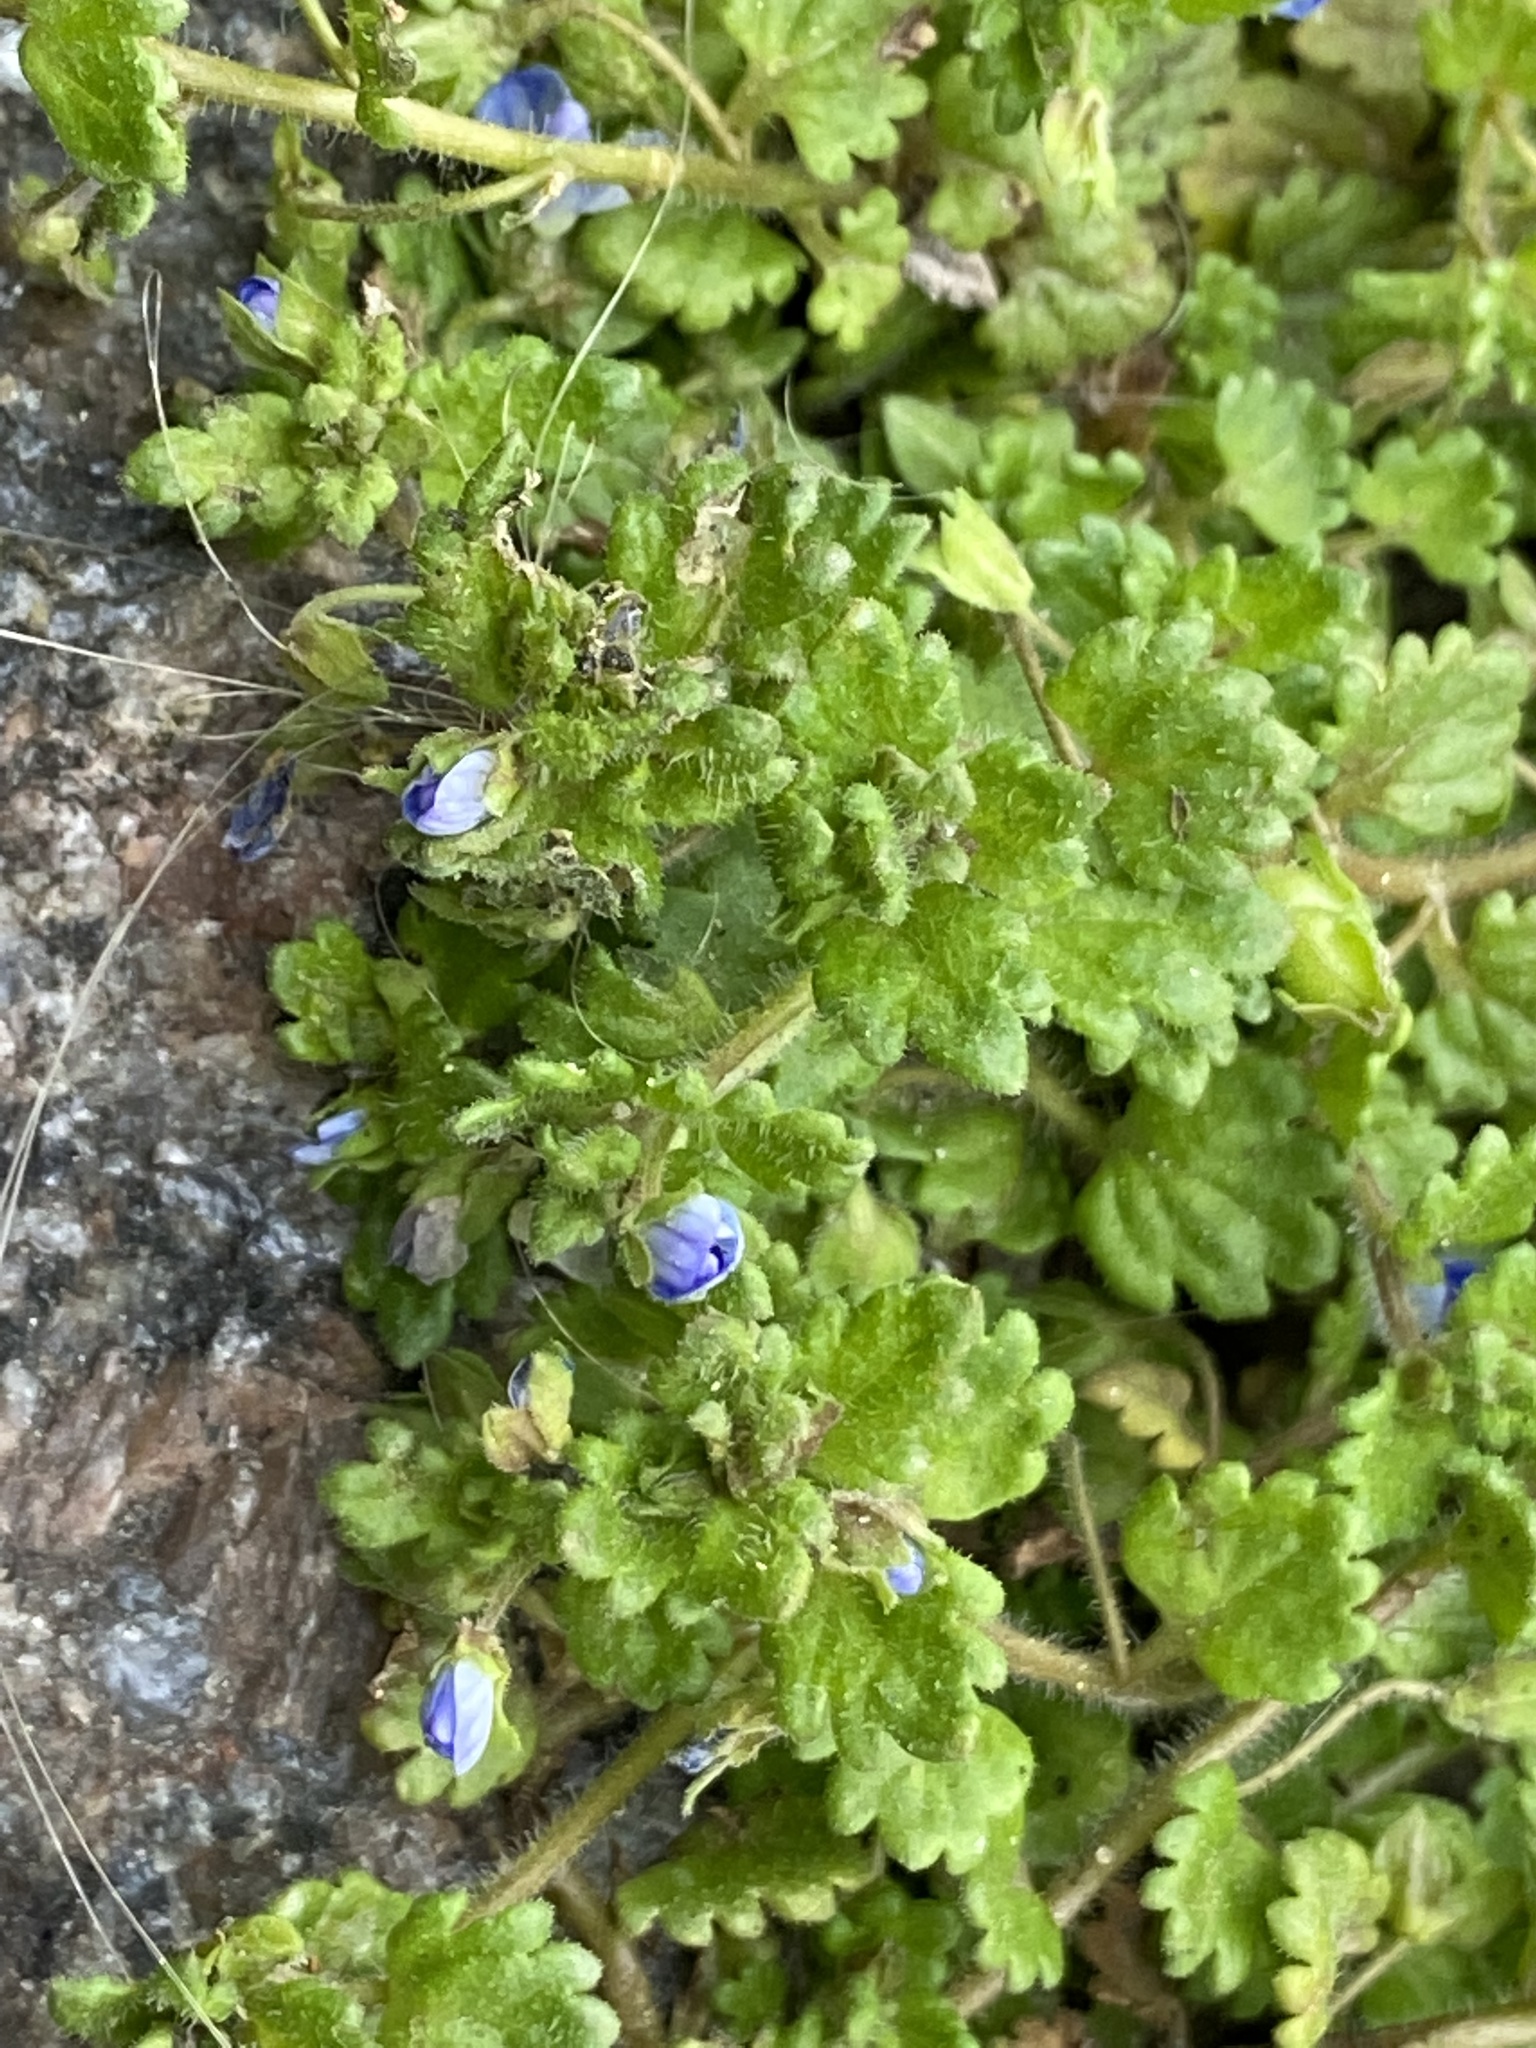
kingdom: Plantae
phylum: Tracheophyta
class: Magnoliopsida
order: Lamiales
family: Plantaginaceae
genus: Veronica
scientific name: Veronica polita
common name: Grey field-speedwell
